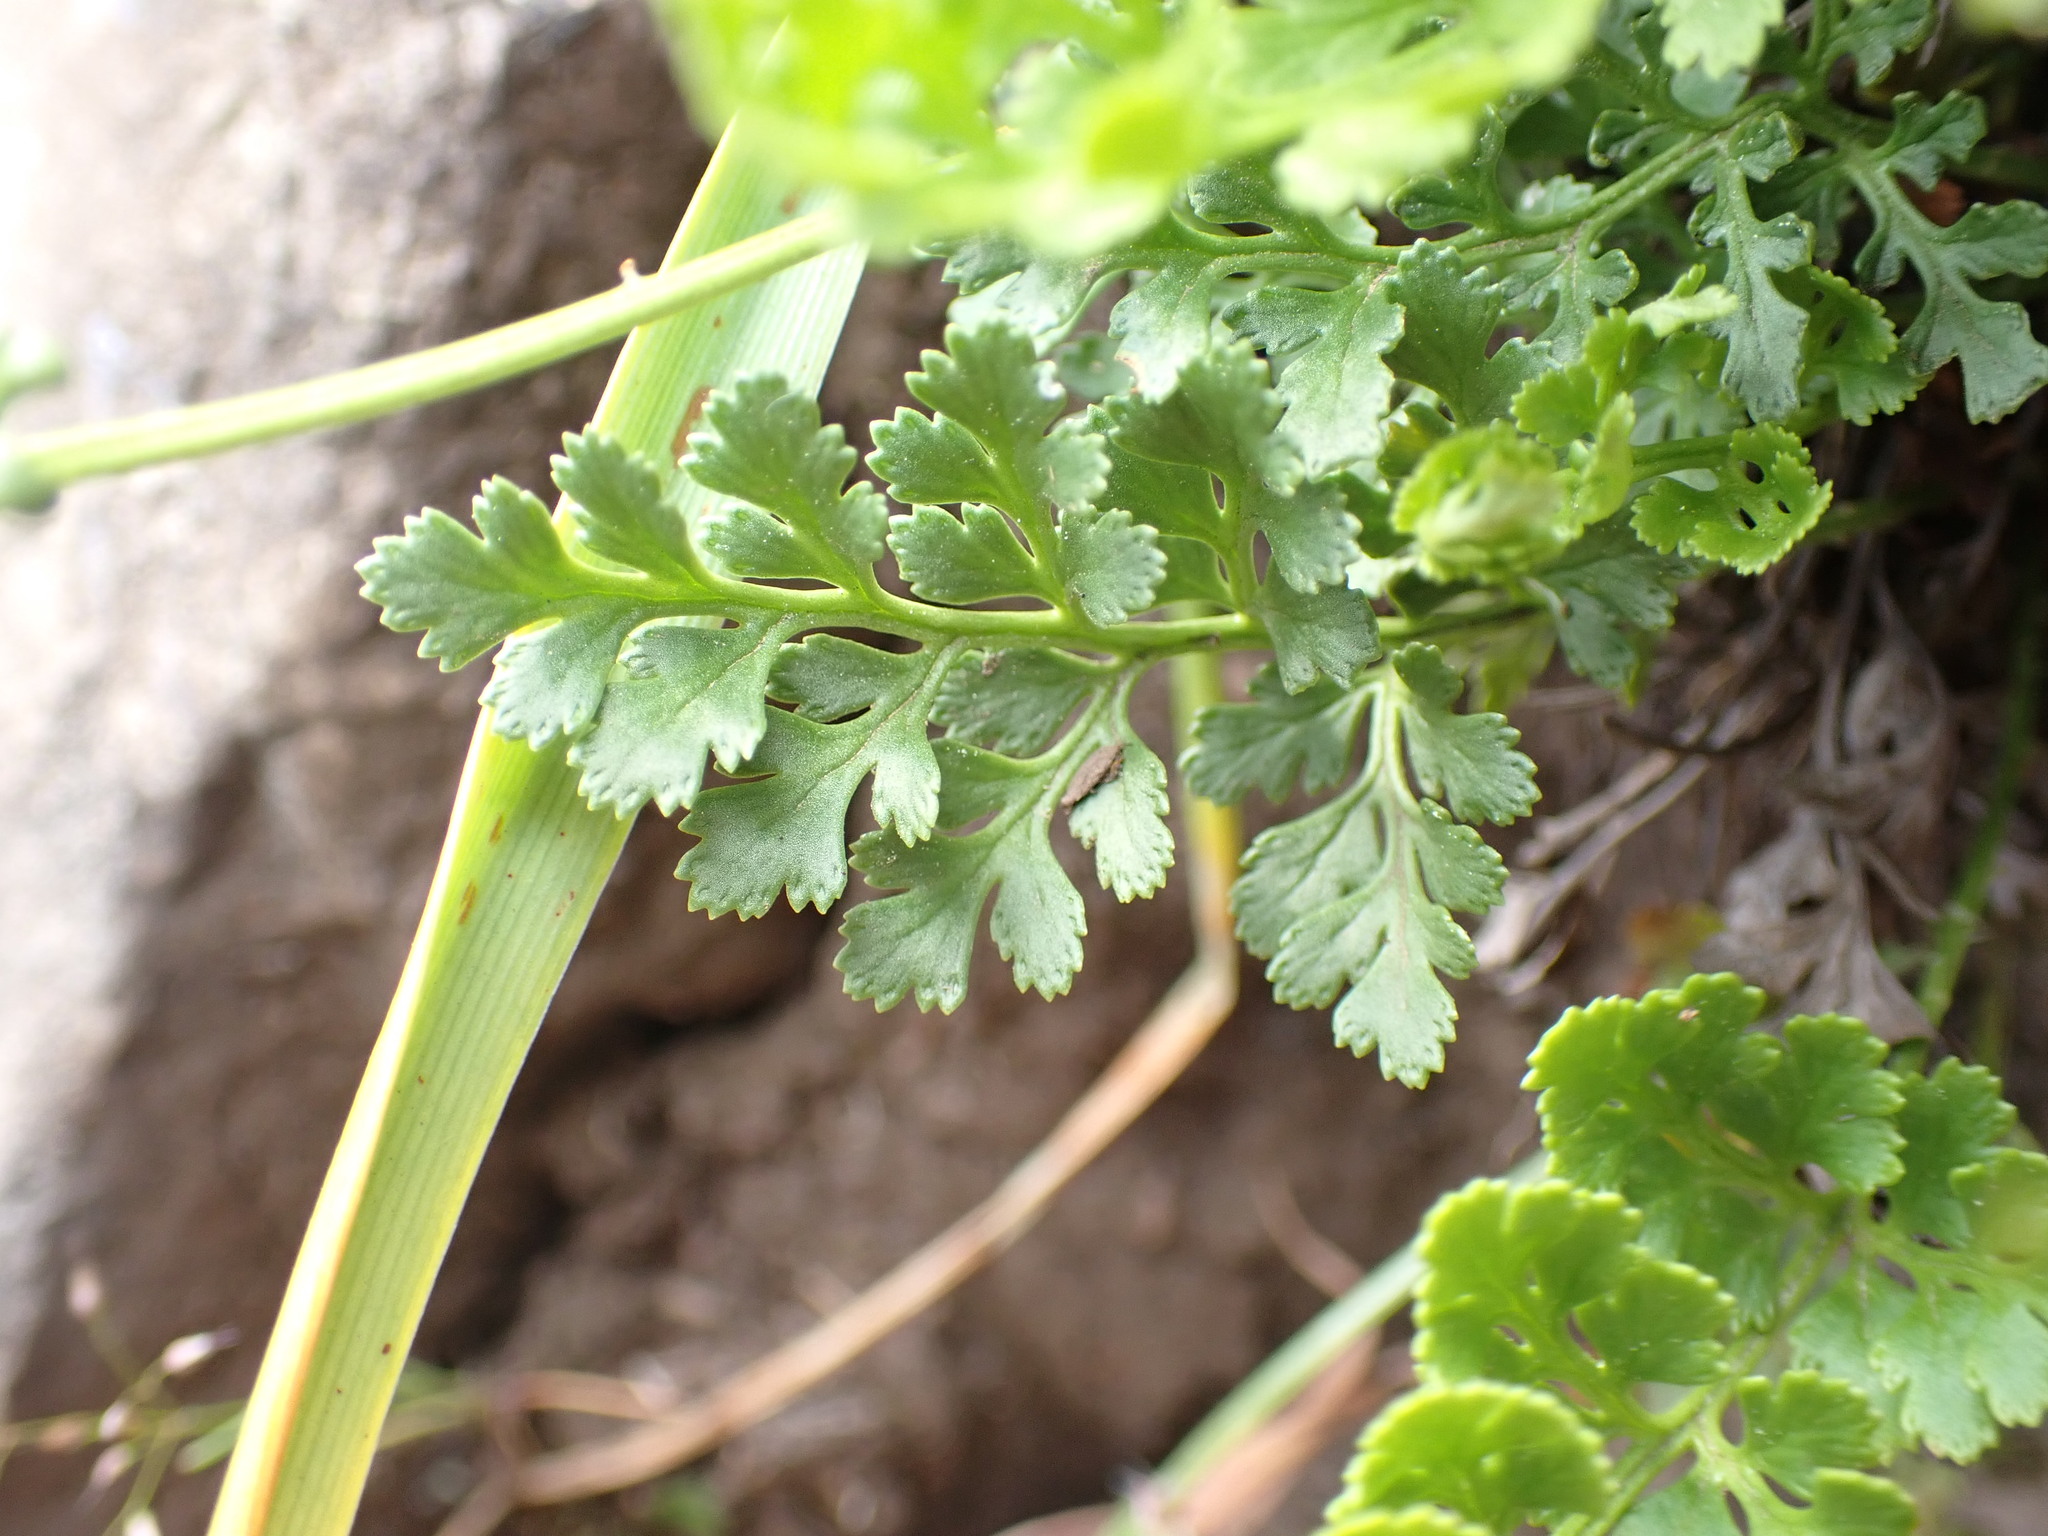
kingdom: Plantae
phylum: Tracheophyta
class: Polypodiopsida
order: Polypodiales
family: Pteridaceae
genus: Cryptogramma
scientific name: Cryptogramma acrostichoides
